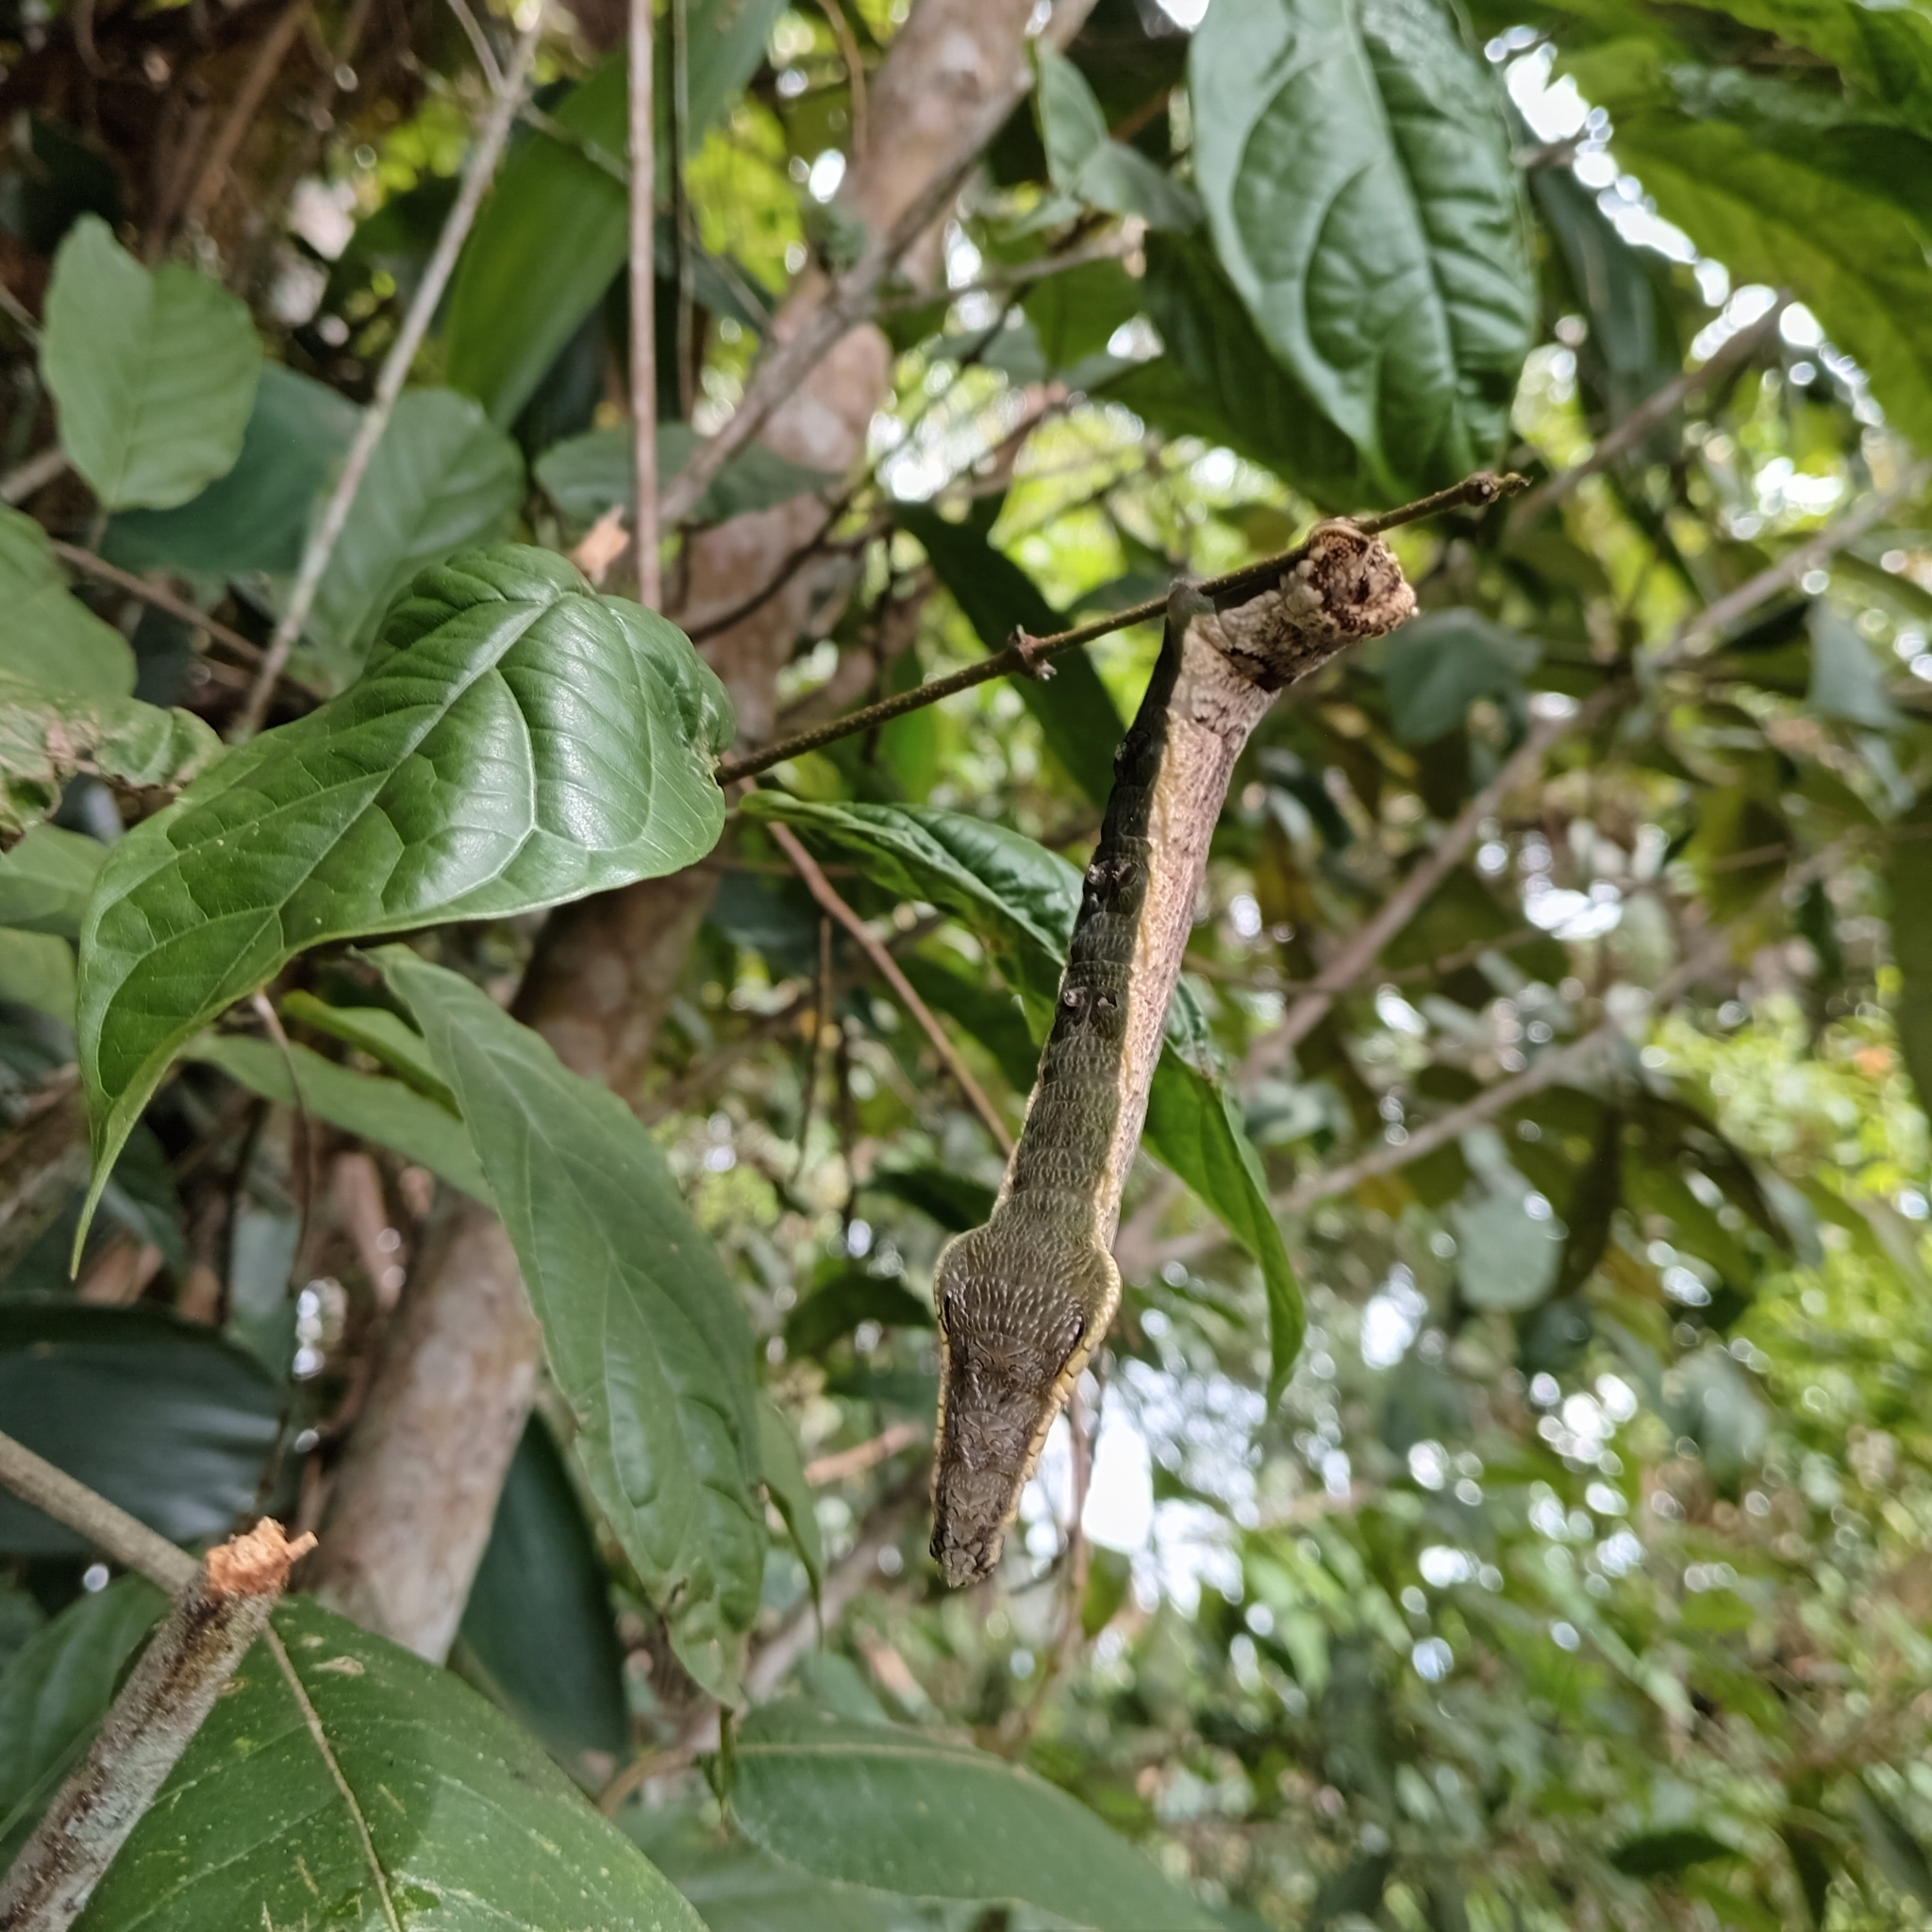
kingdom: Animalia
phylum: Arthropoda
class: Insecta
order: Lepidoptera
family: Sphingidae
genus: Hemeroplanes
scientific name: Hemeroplanes triptolemus
